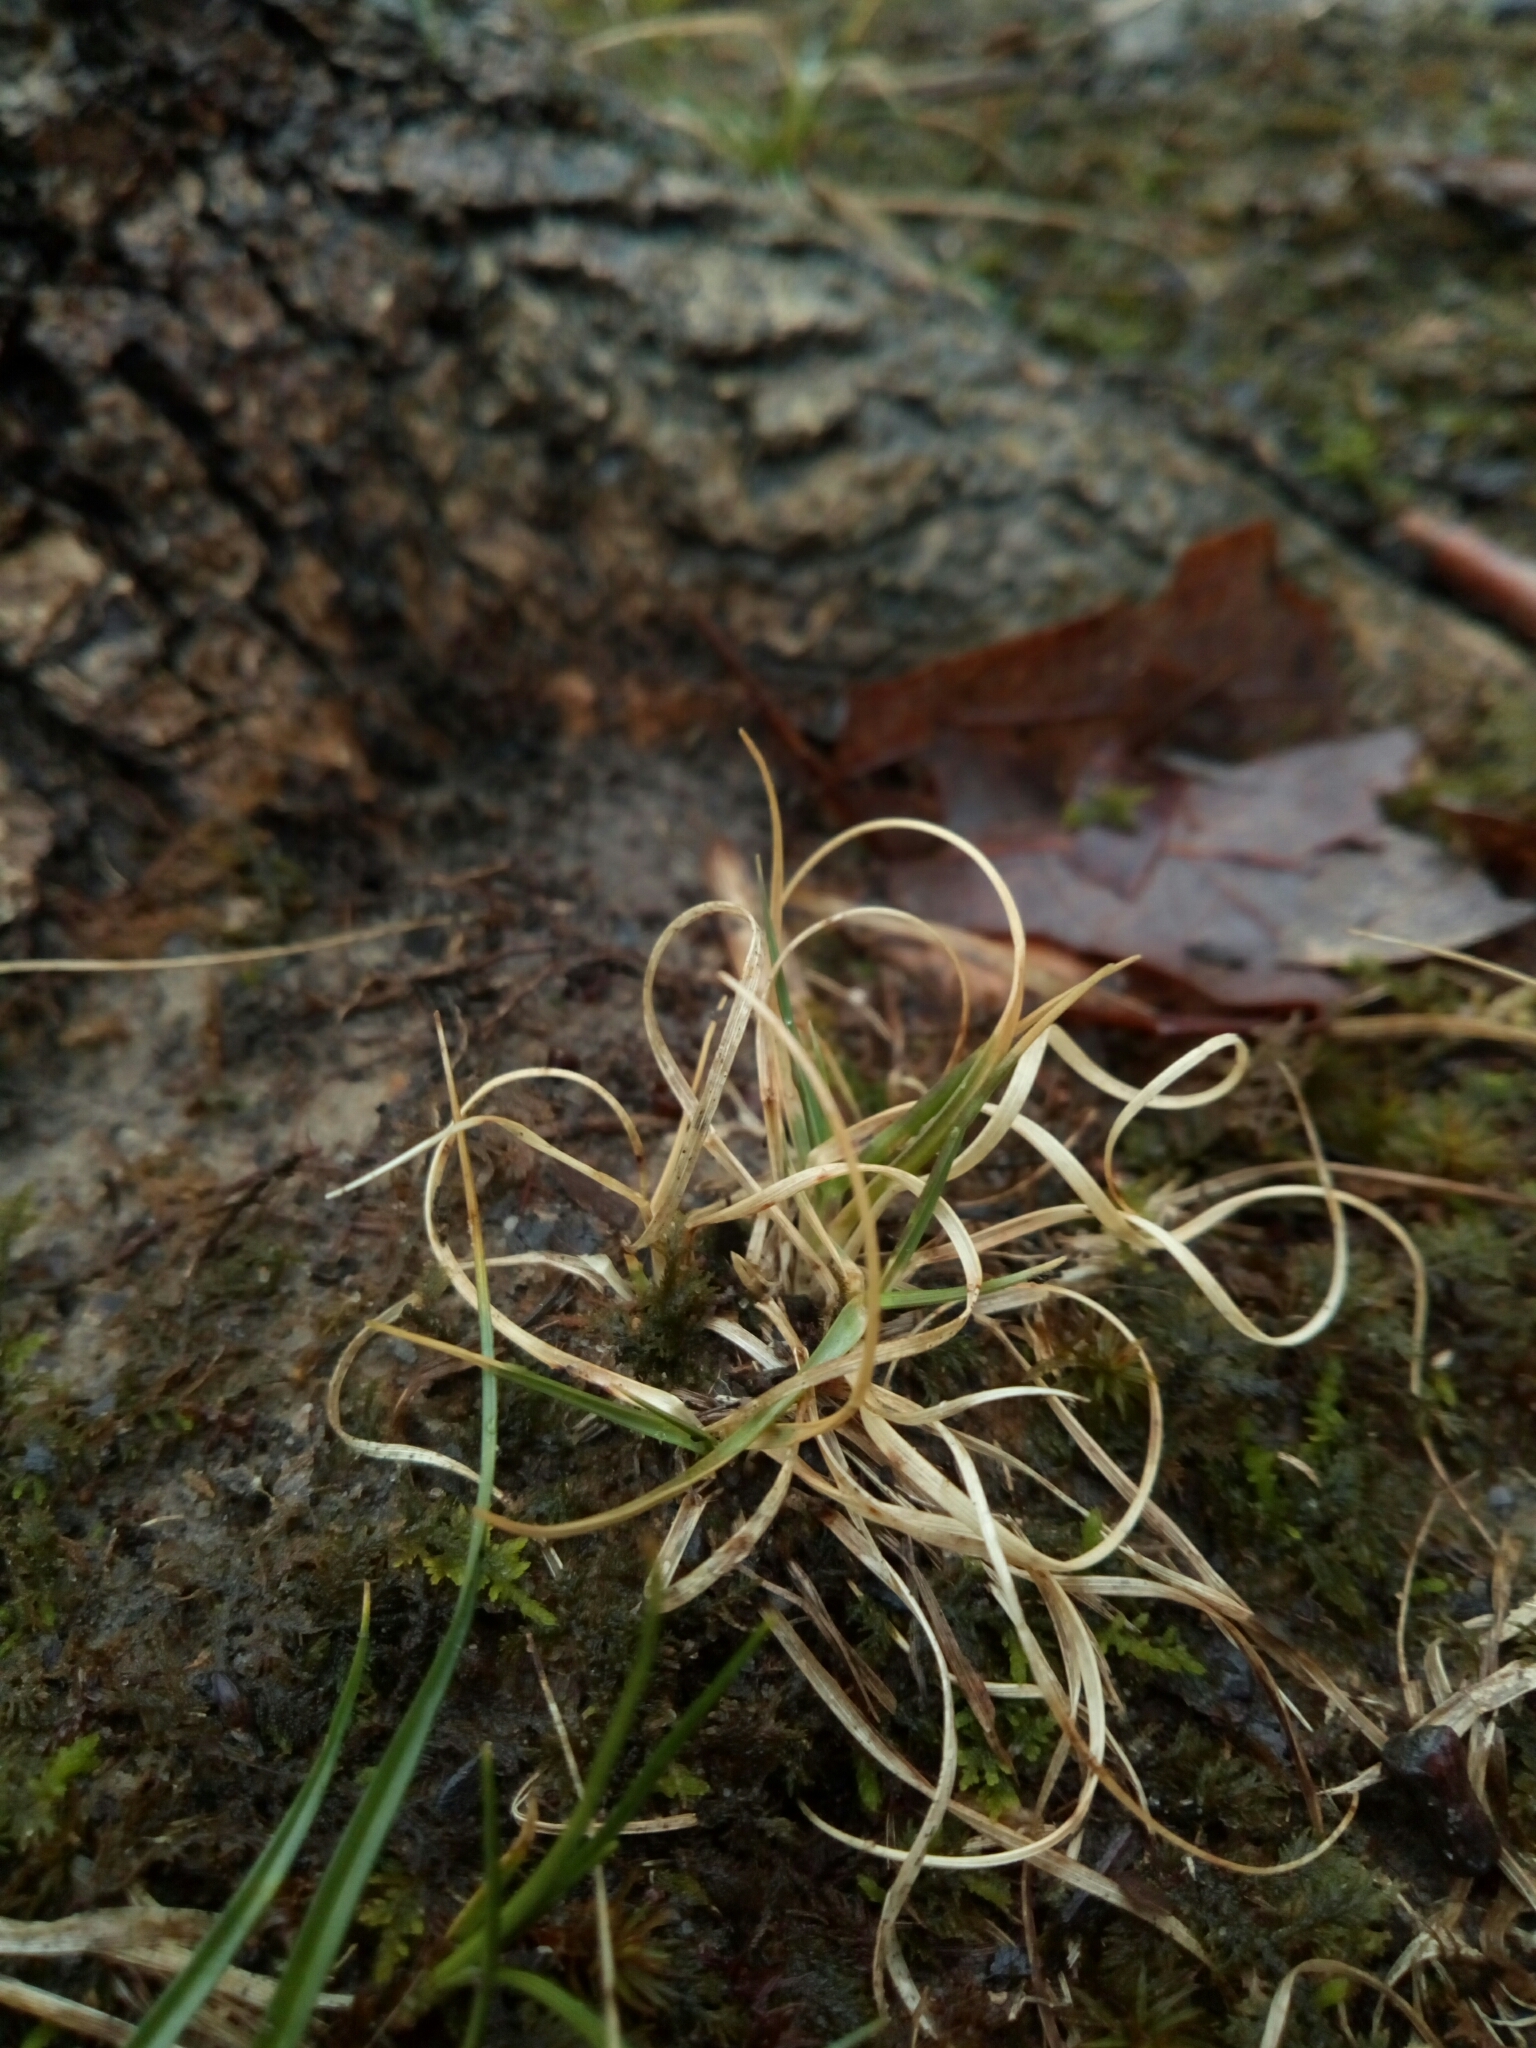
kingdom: Plantae
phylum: Tracheophyta
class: Liliopsida
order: Poales
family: Poaceae
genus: Danthonia
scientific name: Danthonia spicata
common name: Common wild oatgrass
